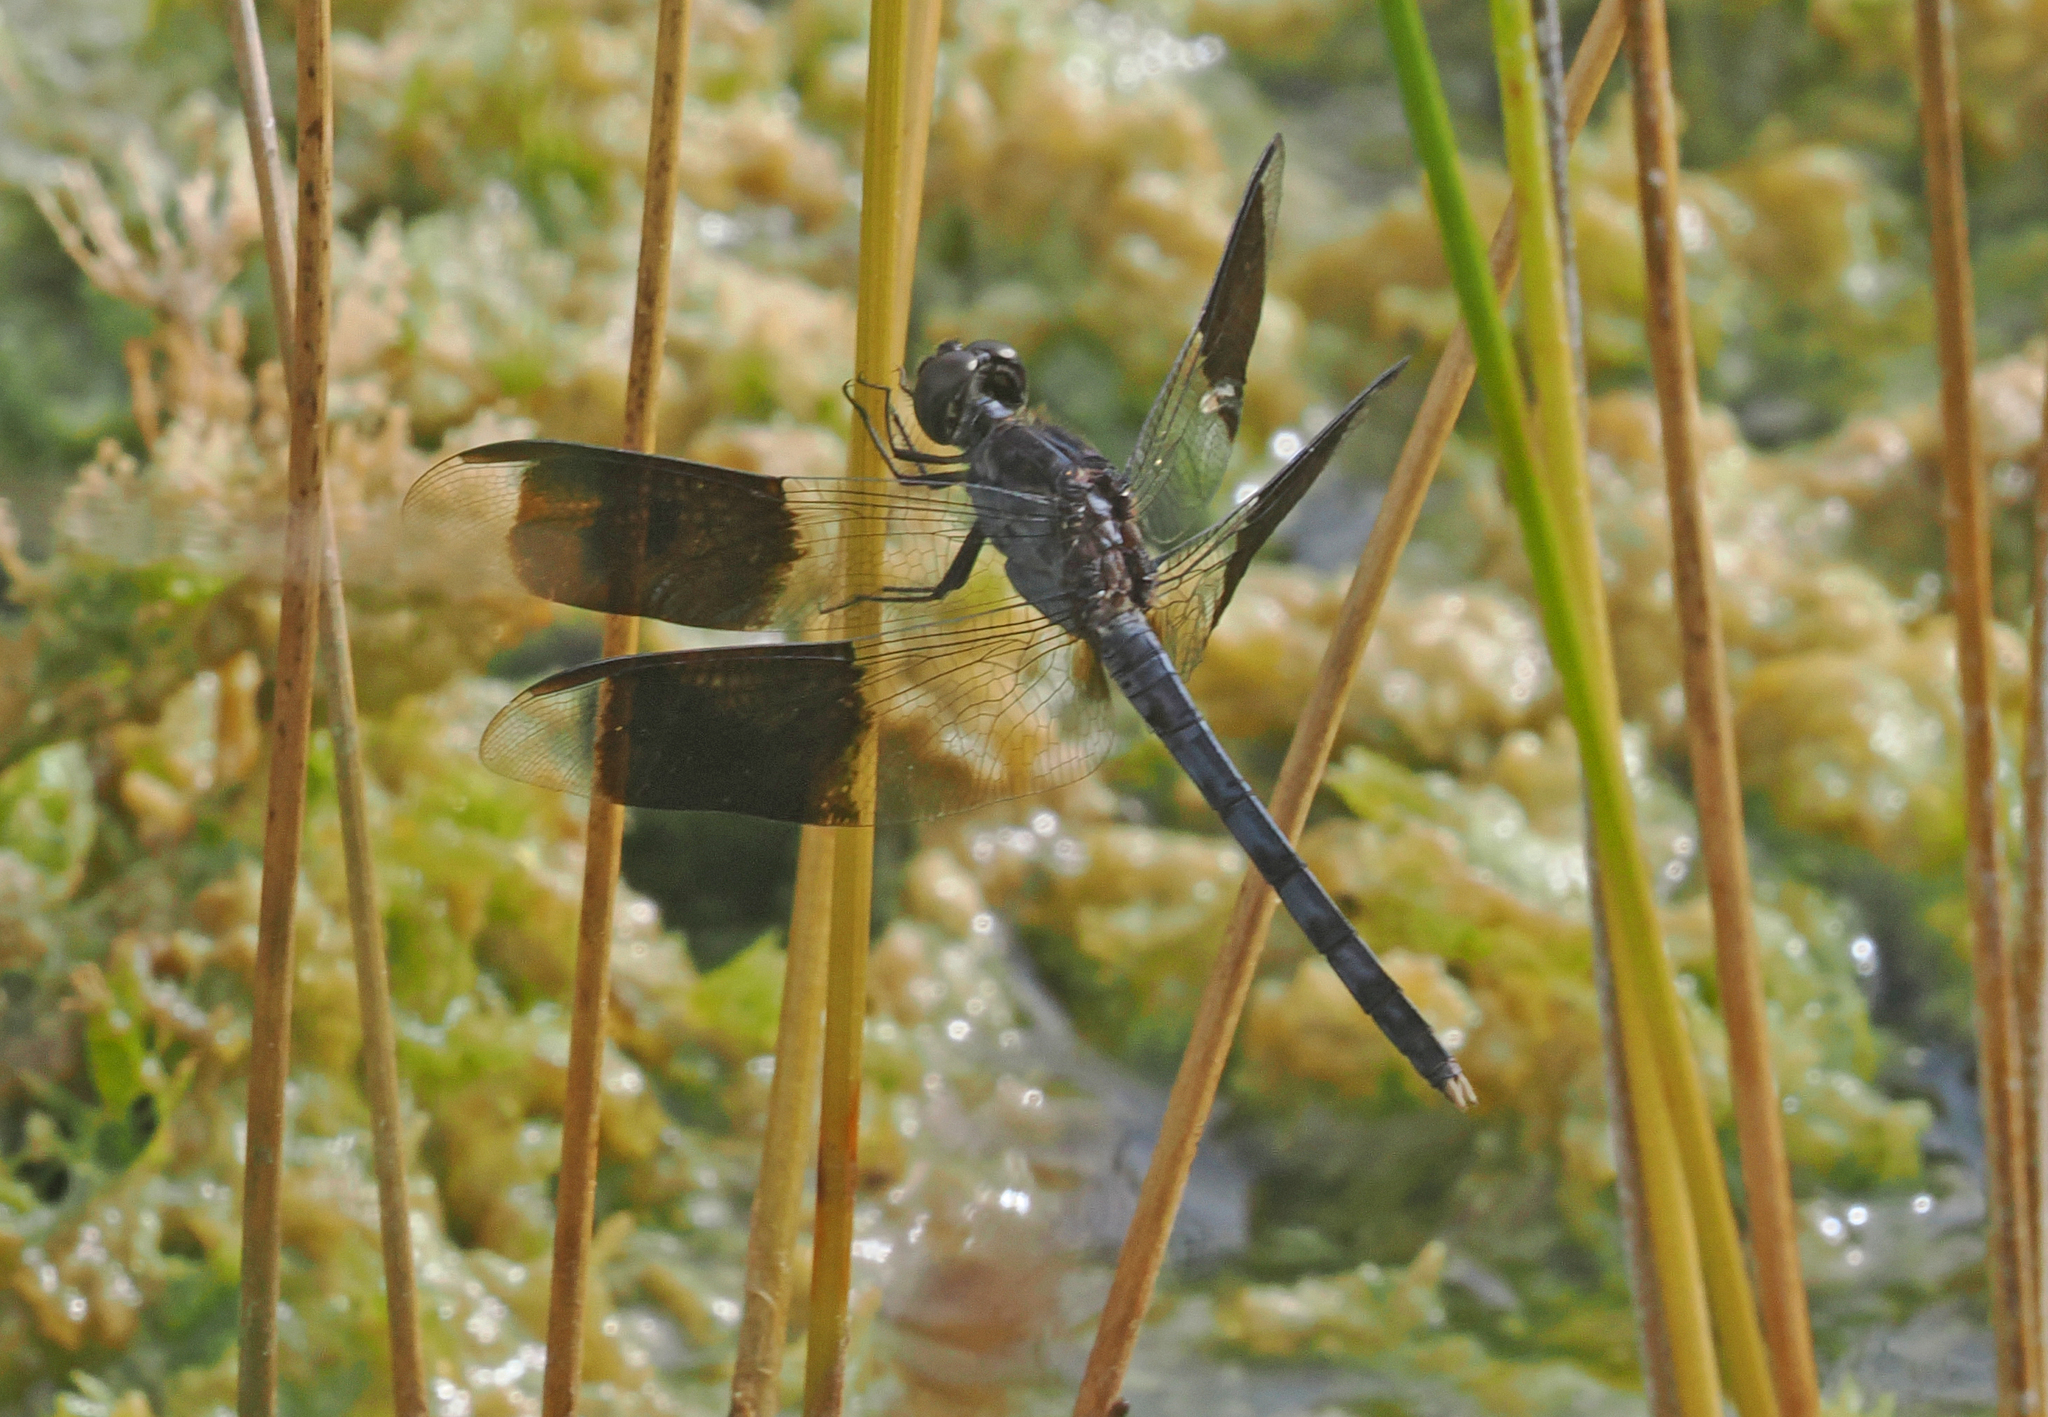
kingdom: Animalia
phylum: Arthropoda
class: Insecta
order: Odonata
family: Libellulidae
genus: Erythrodiplax
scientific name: Erythrodiplax umbrata
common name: Band-winged dragonlet
